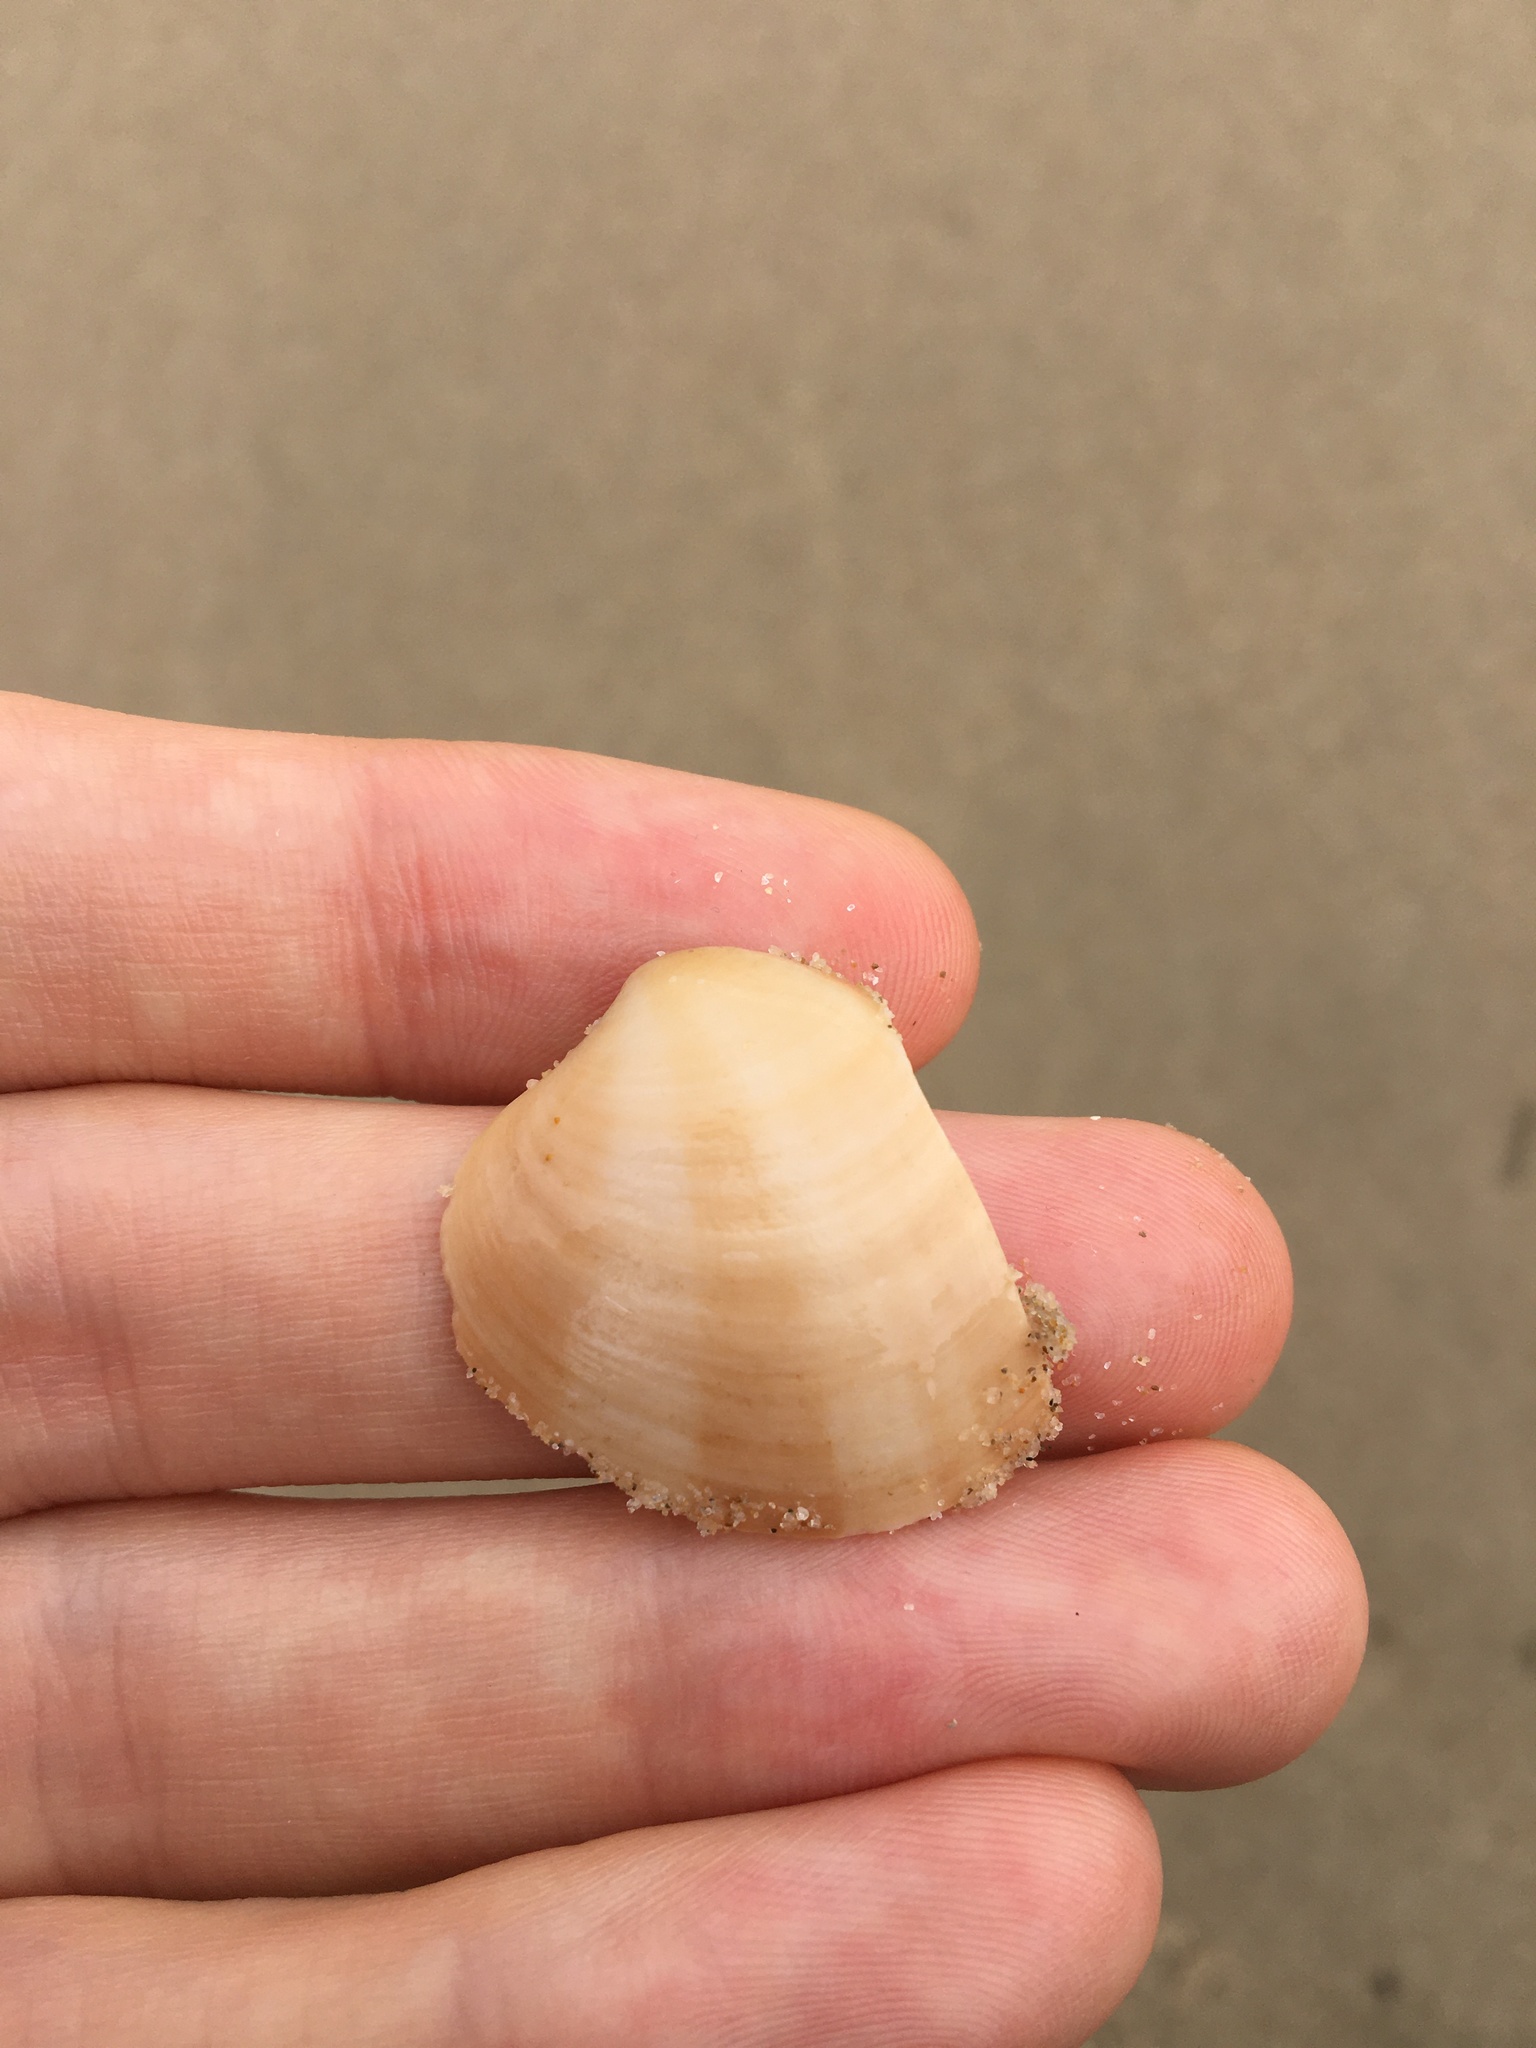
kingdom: Animalia
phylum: Mollusca
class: Bivalvia
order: Venerida
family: Veneridae
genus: Bassina
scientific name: Bassina pachyphylla
